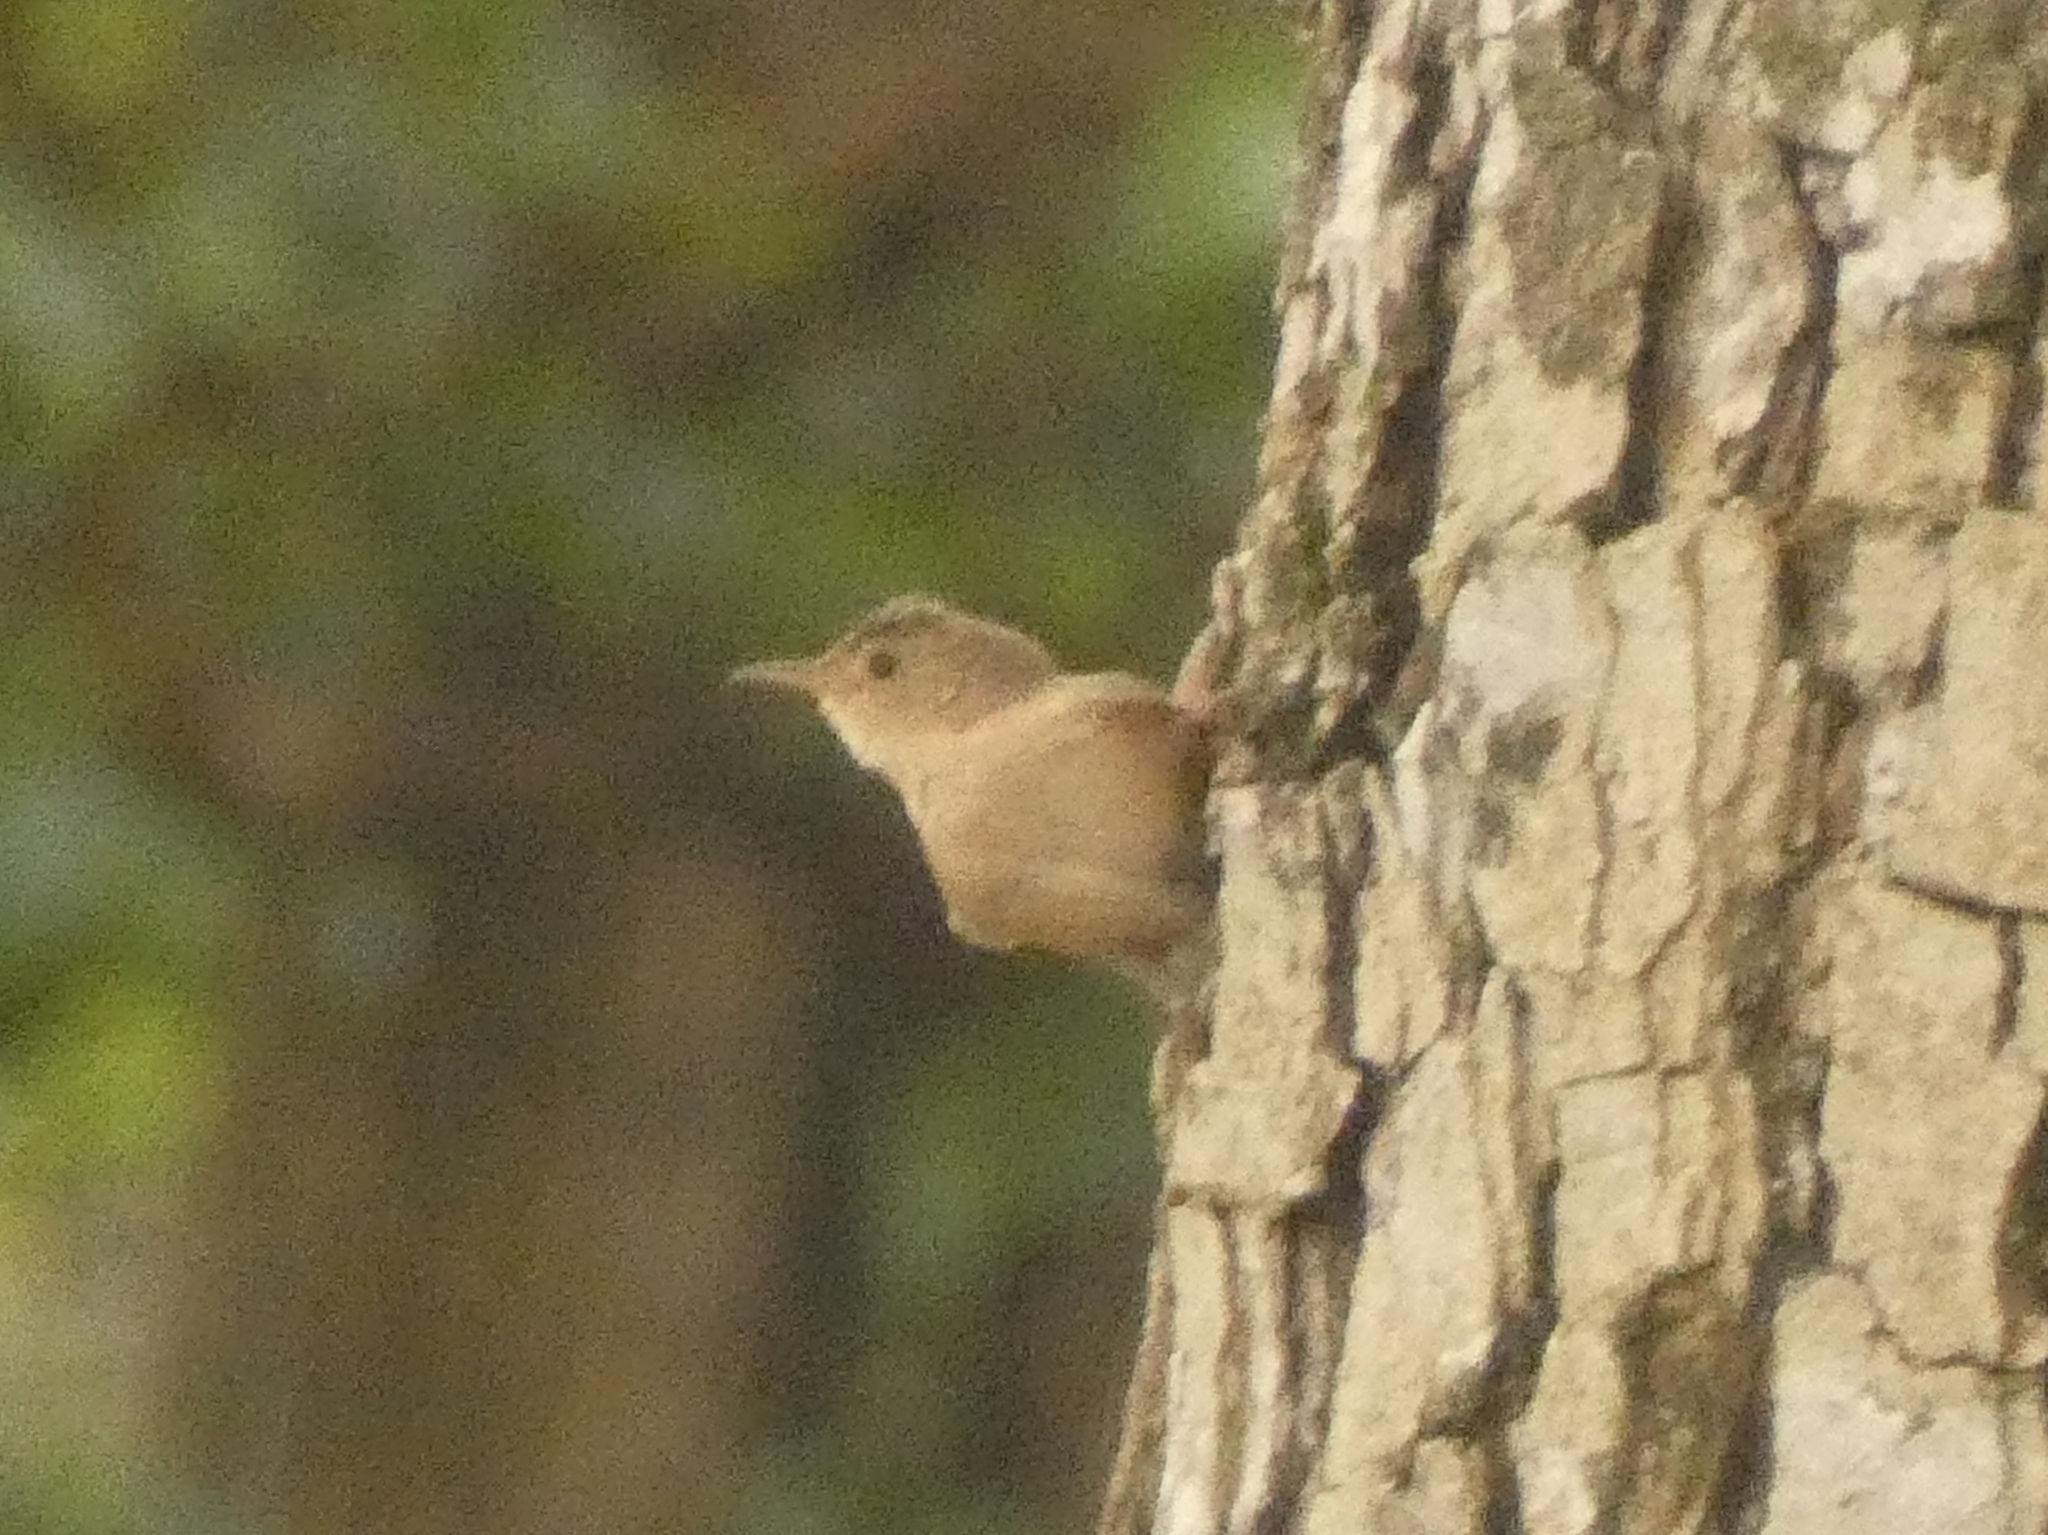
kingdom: Animalia
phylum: Chordata
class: Aves
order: Passeriformes
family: Troglodytidae
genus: Troglodytes
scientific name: Troglodytes aedon
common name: House wren
